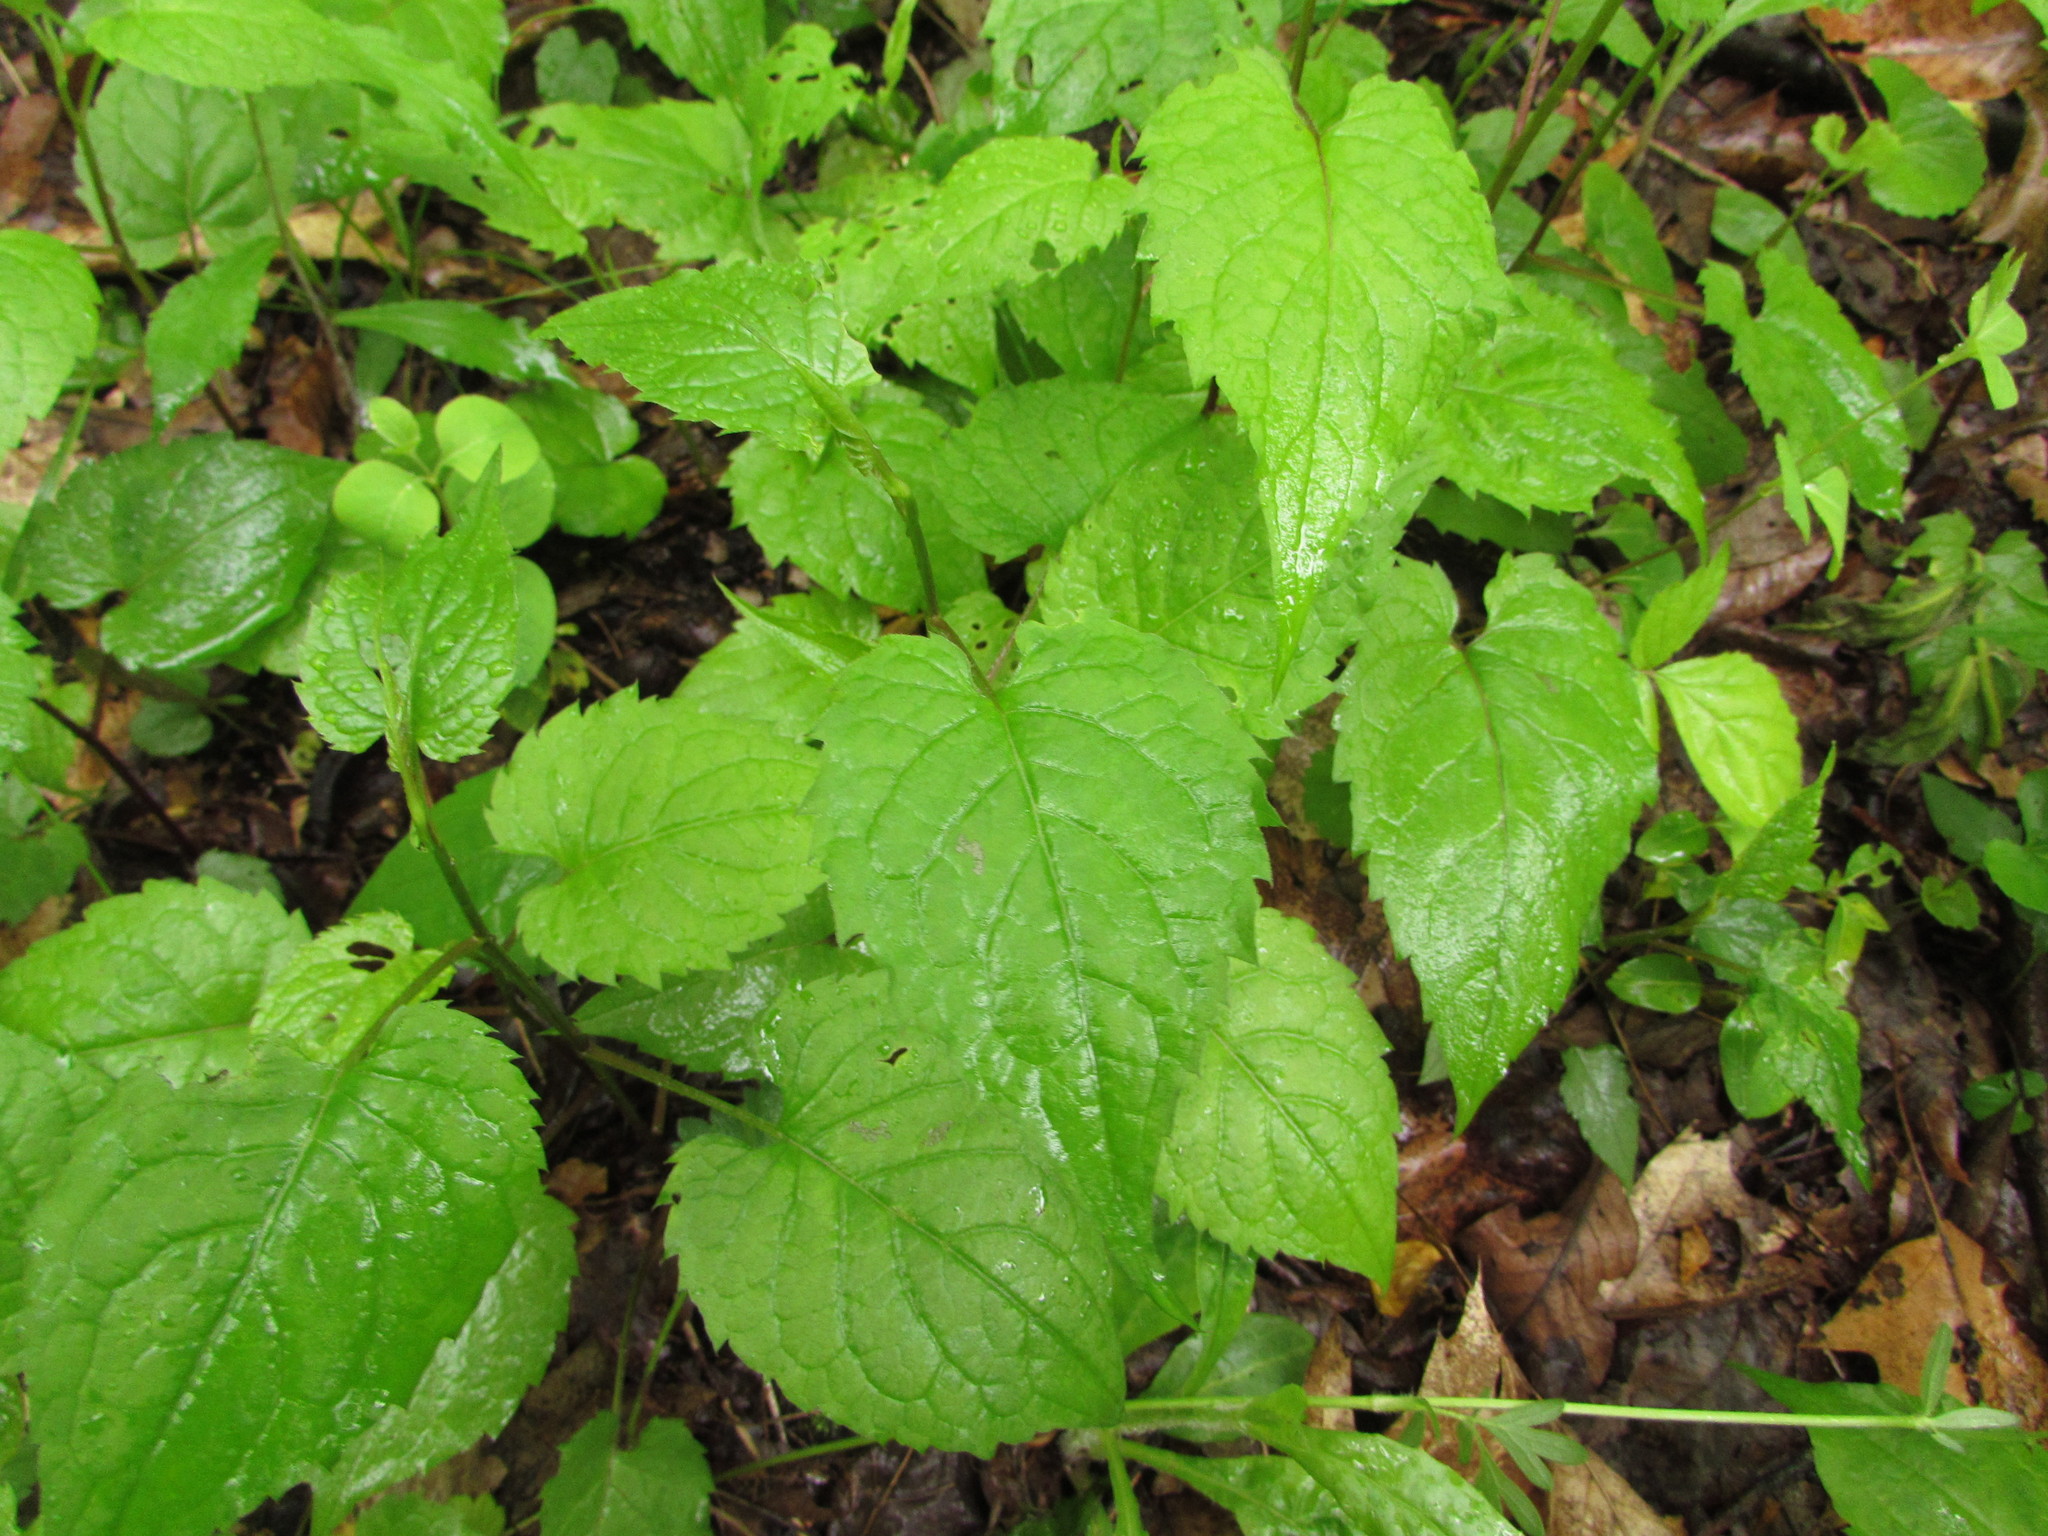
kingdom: Plantae
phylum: Tracheophyta
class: Magnoliopsida
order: Asterales
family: Asteraceae
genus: Eurybia
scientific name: Eurybia divaricata
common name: White wood aster
